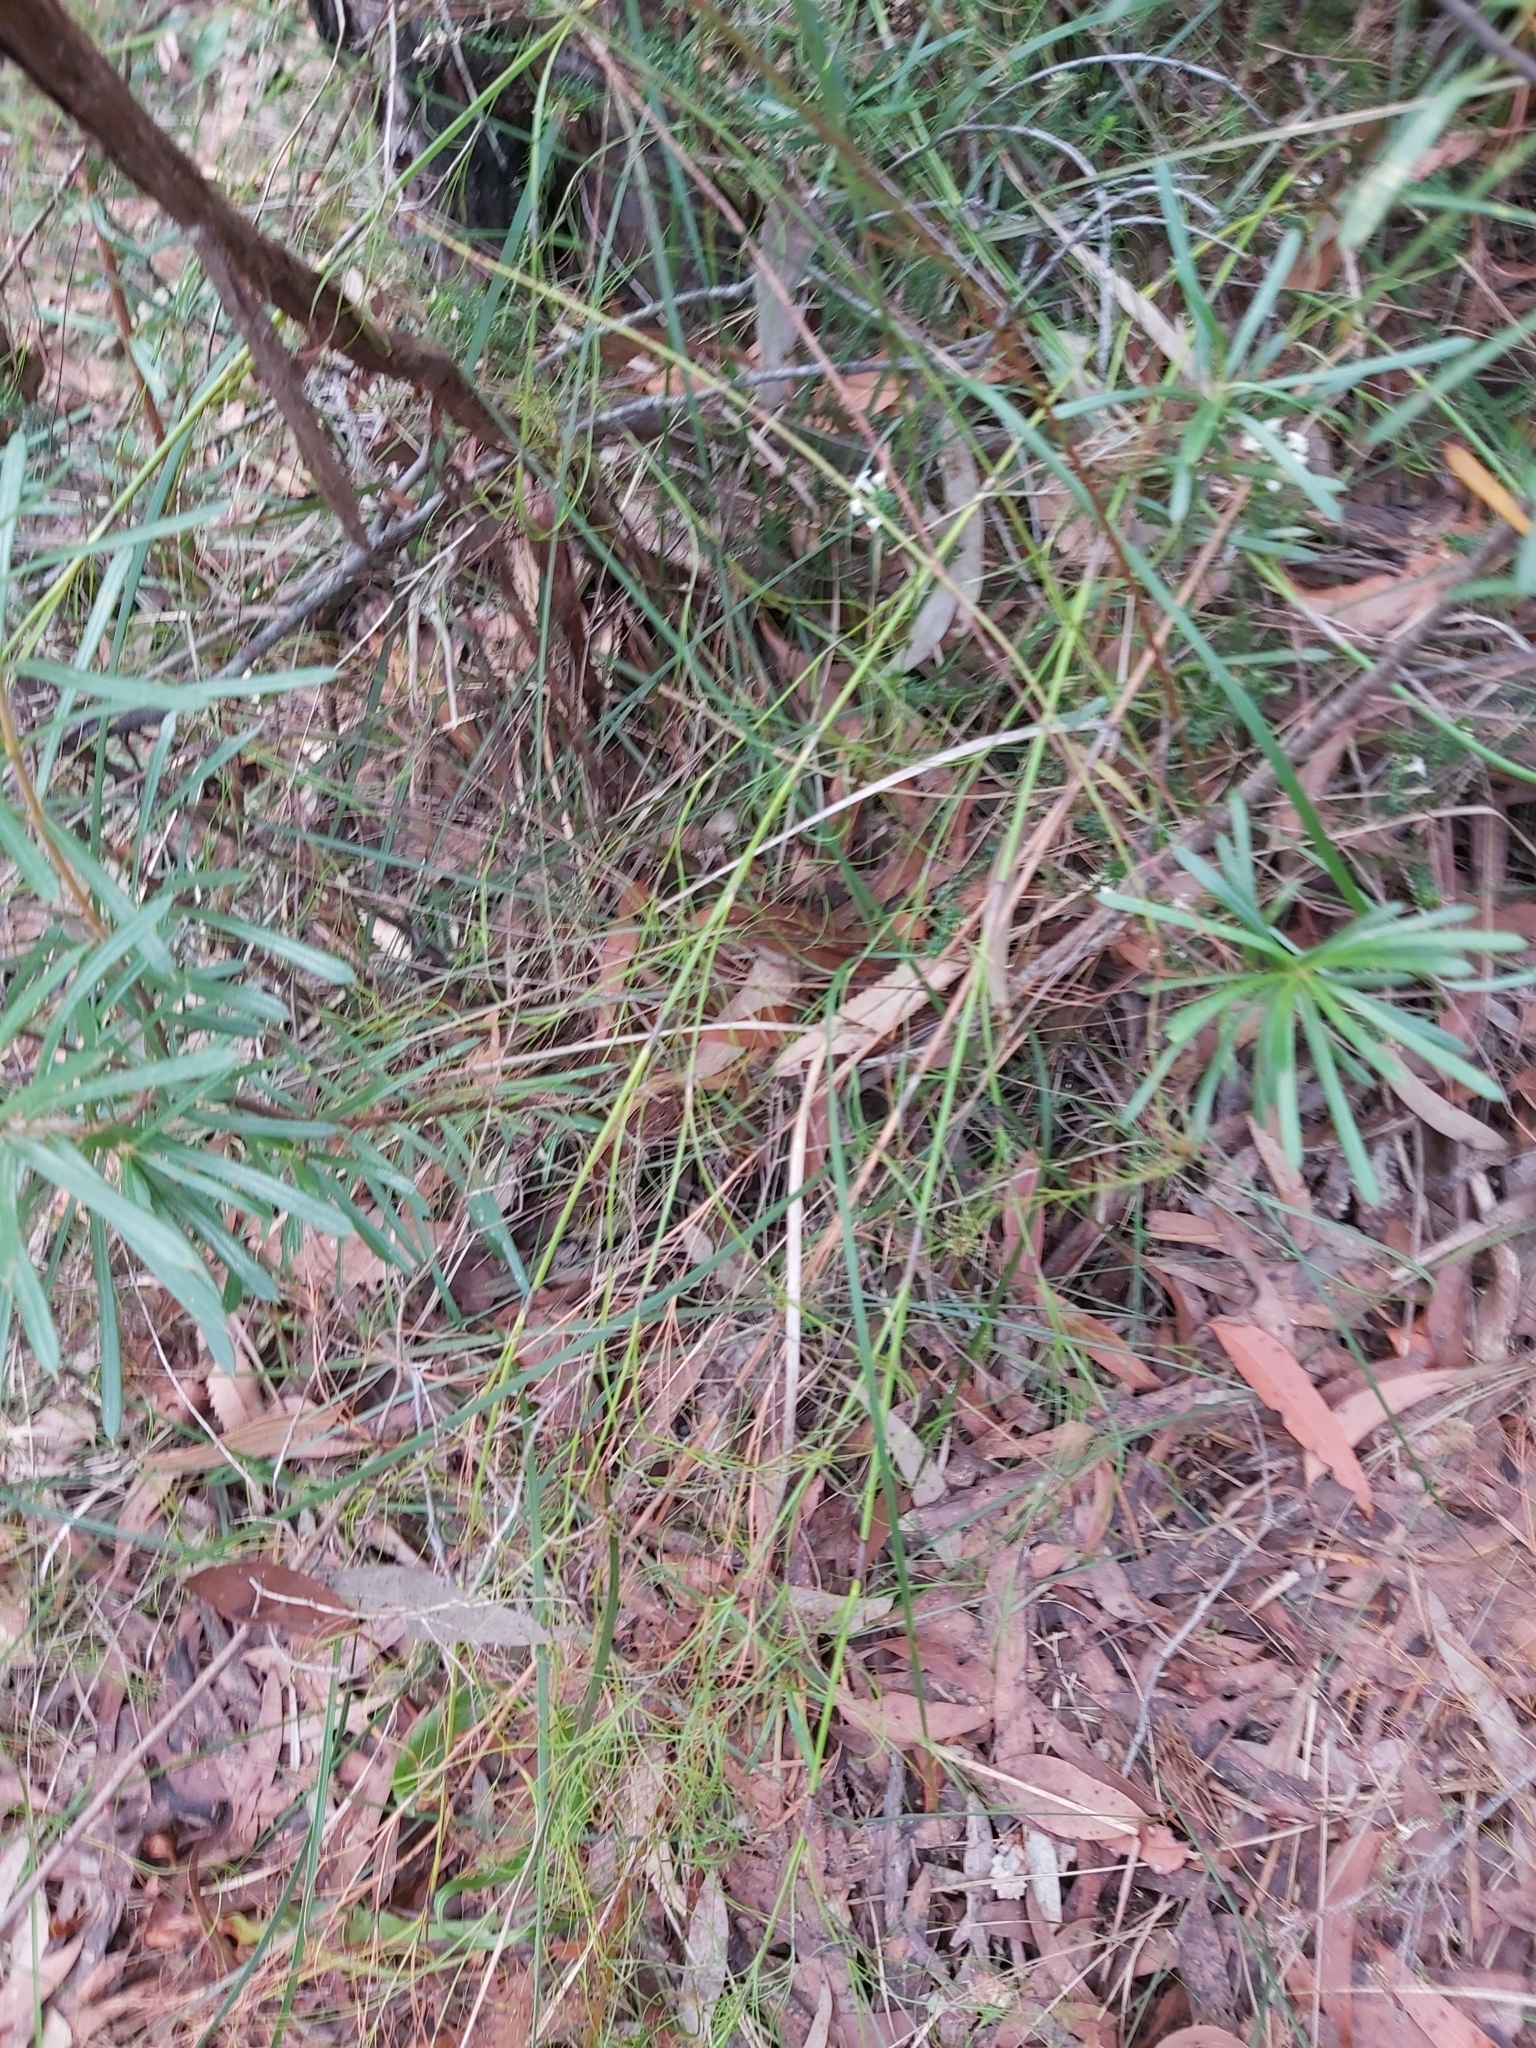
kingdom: Plantae
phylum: Tracheophyta
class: Liliopsida
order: Poales
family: Cyperaceae
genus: Caustis
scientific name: Caustis flexuosa
